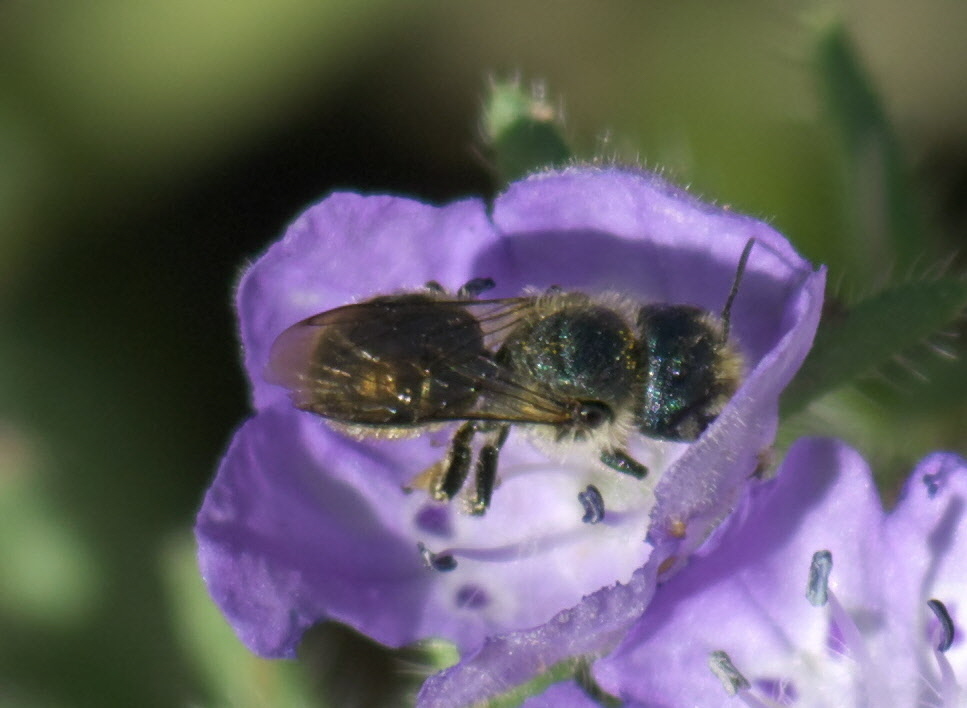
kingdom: Animalia
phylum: Arthropoda
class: Insecta
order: Hymenoptera
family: Megachilidae
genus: Osmia
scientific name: Osmia
